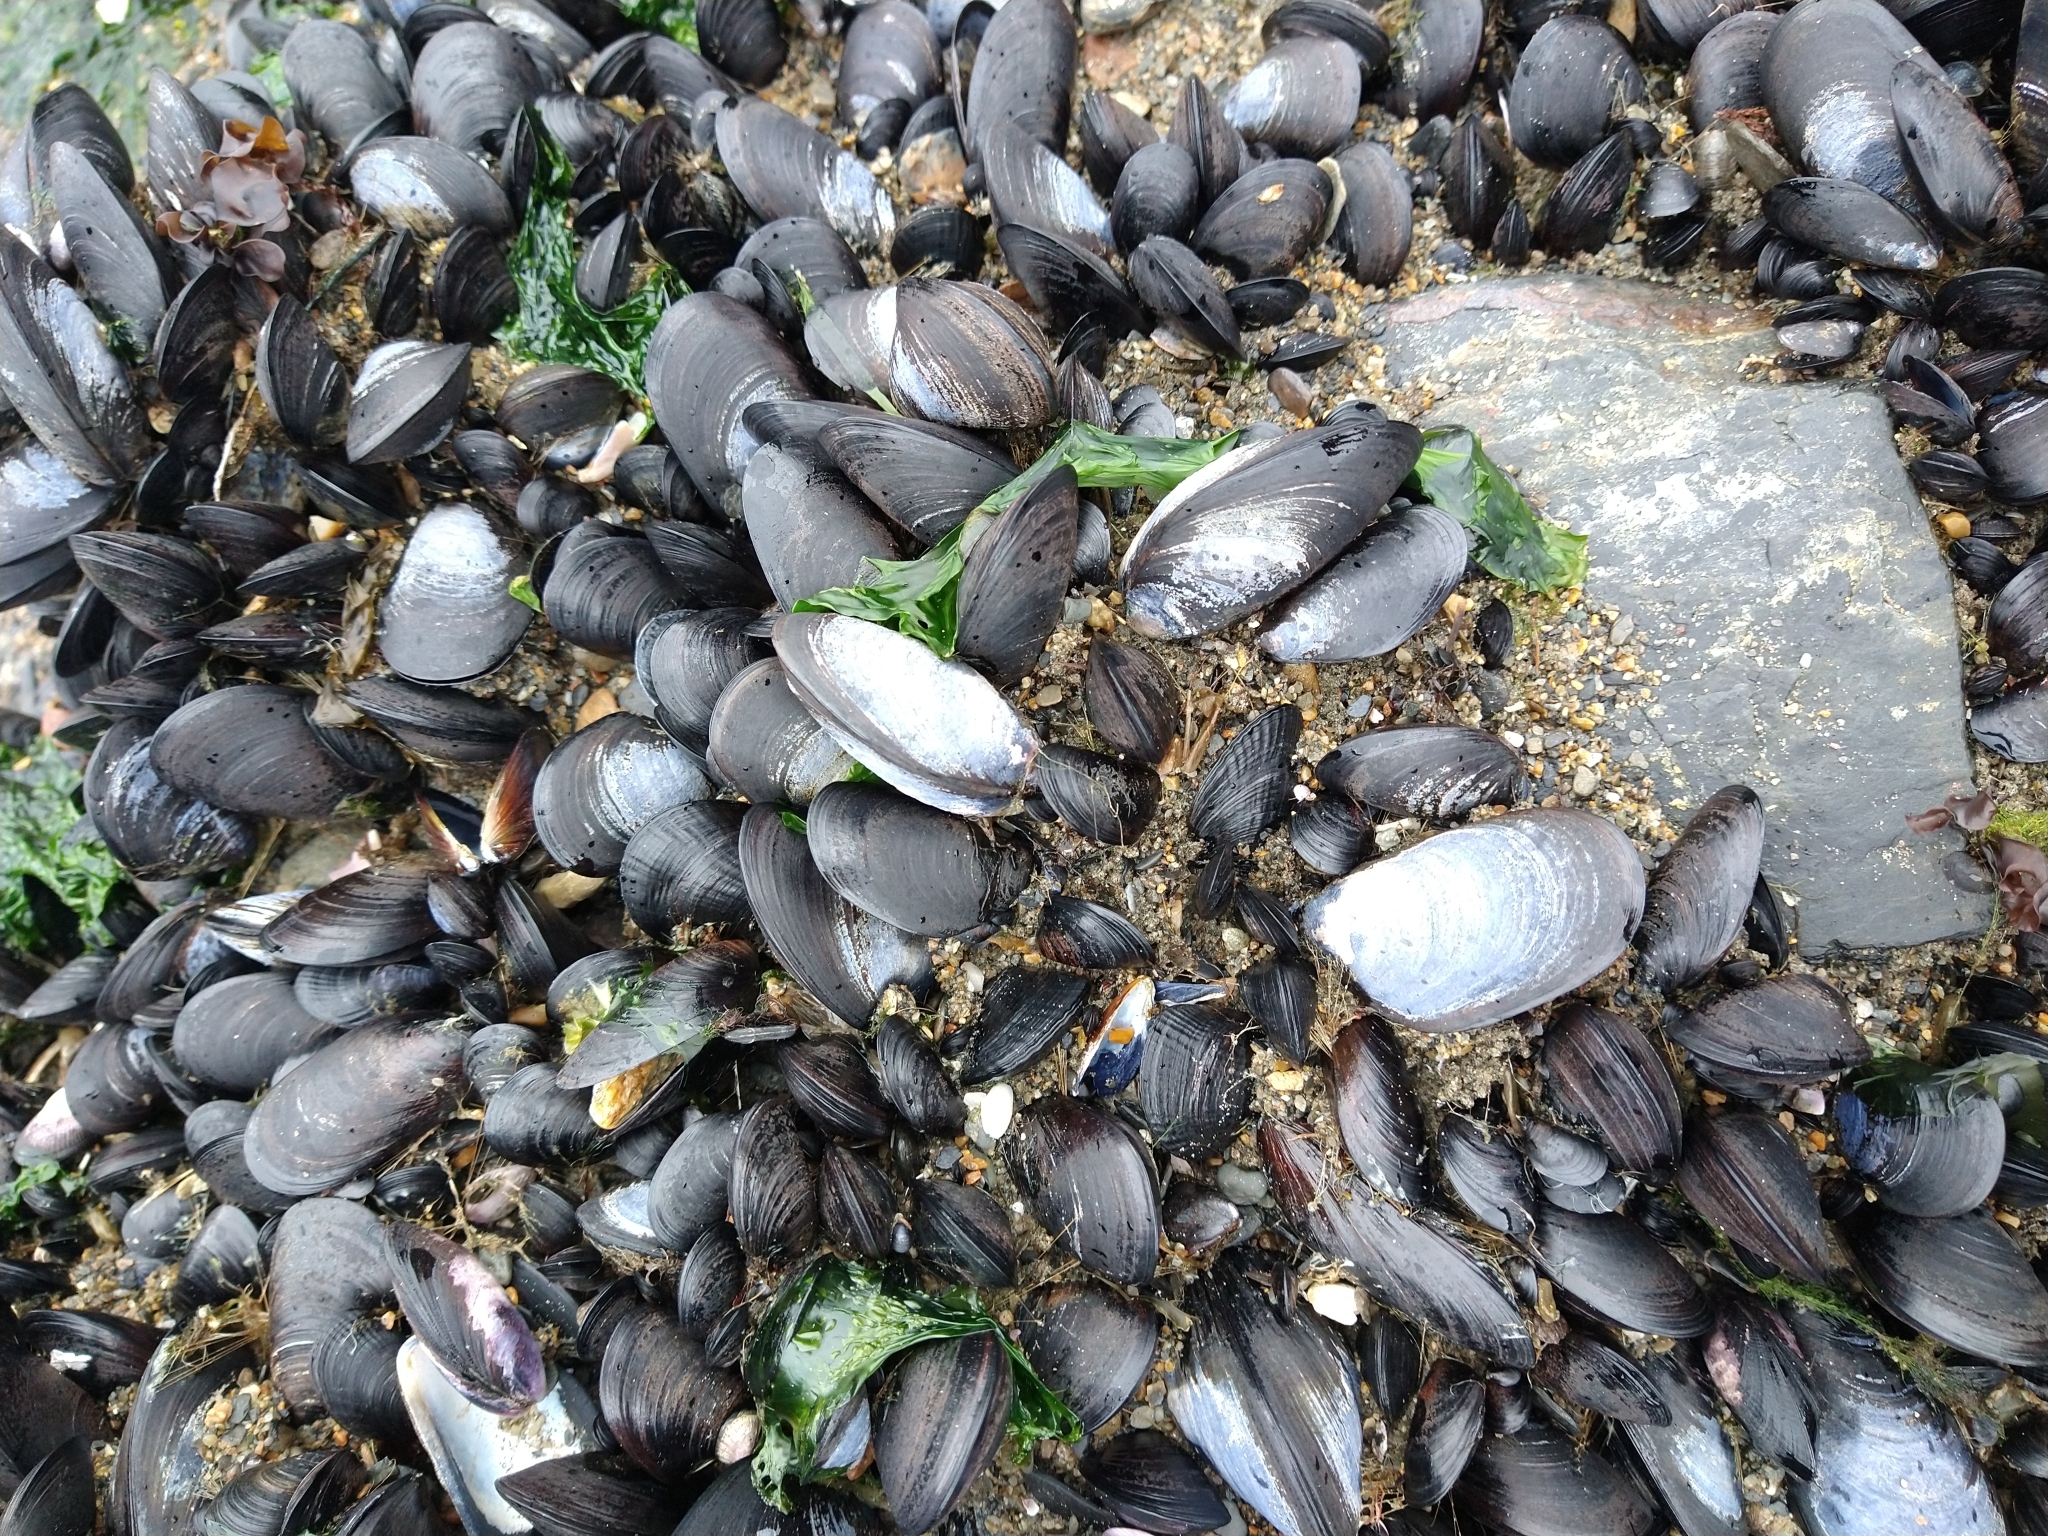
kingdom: Animalia
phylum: Mollusca
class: Bivalvia
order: Mytilida
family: Mytilidae
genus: Mytilus
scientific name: Mytilus chilensis
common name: Chilean mussel
